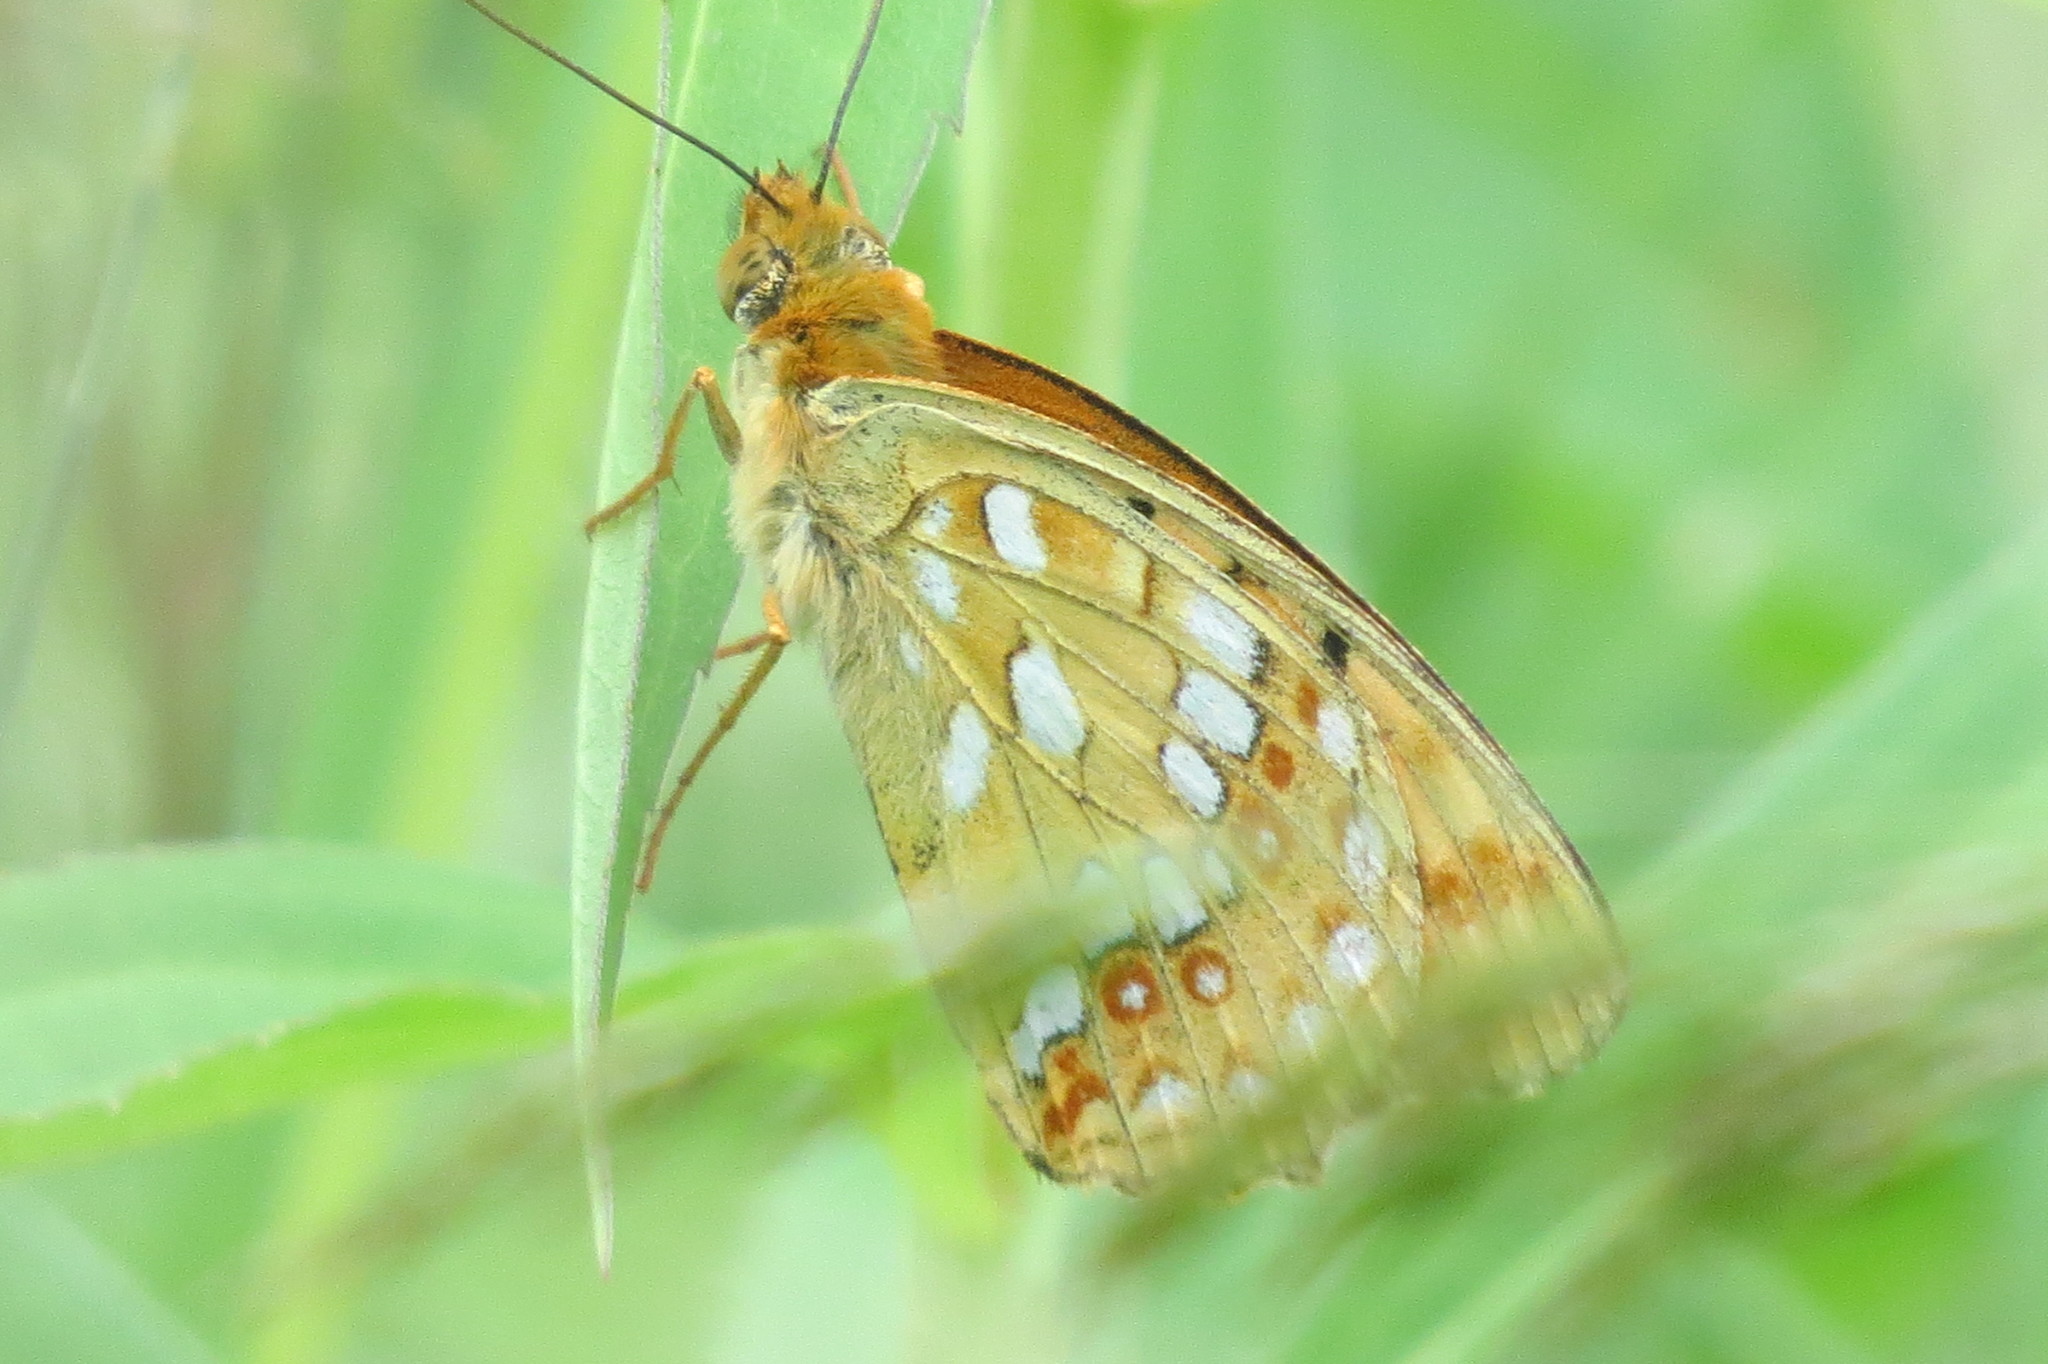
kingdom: Animalia
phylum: Arthropoda
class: Insecta
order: Lepidoptera
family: Nymphalidae
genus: Fabriciana
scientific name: Fabriciana adippe
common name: High brown fritillary
